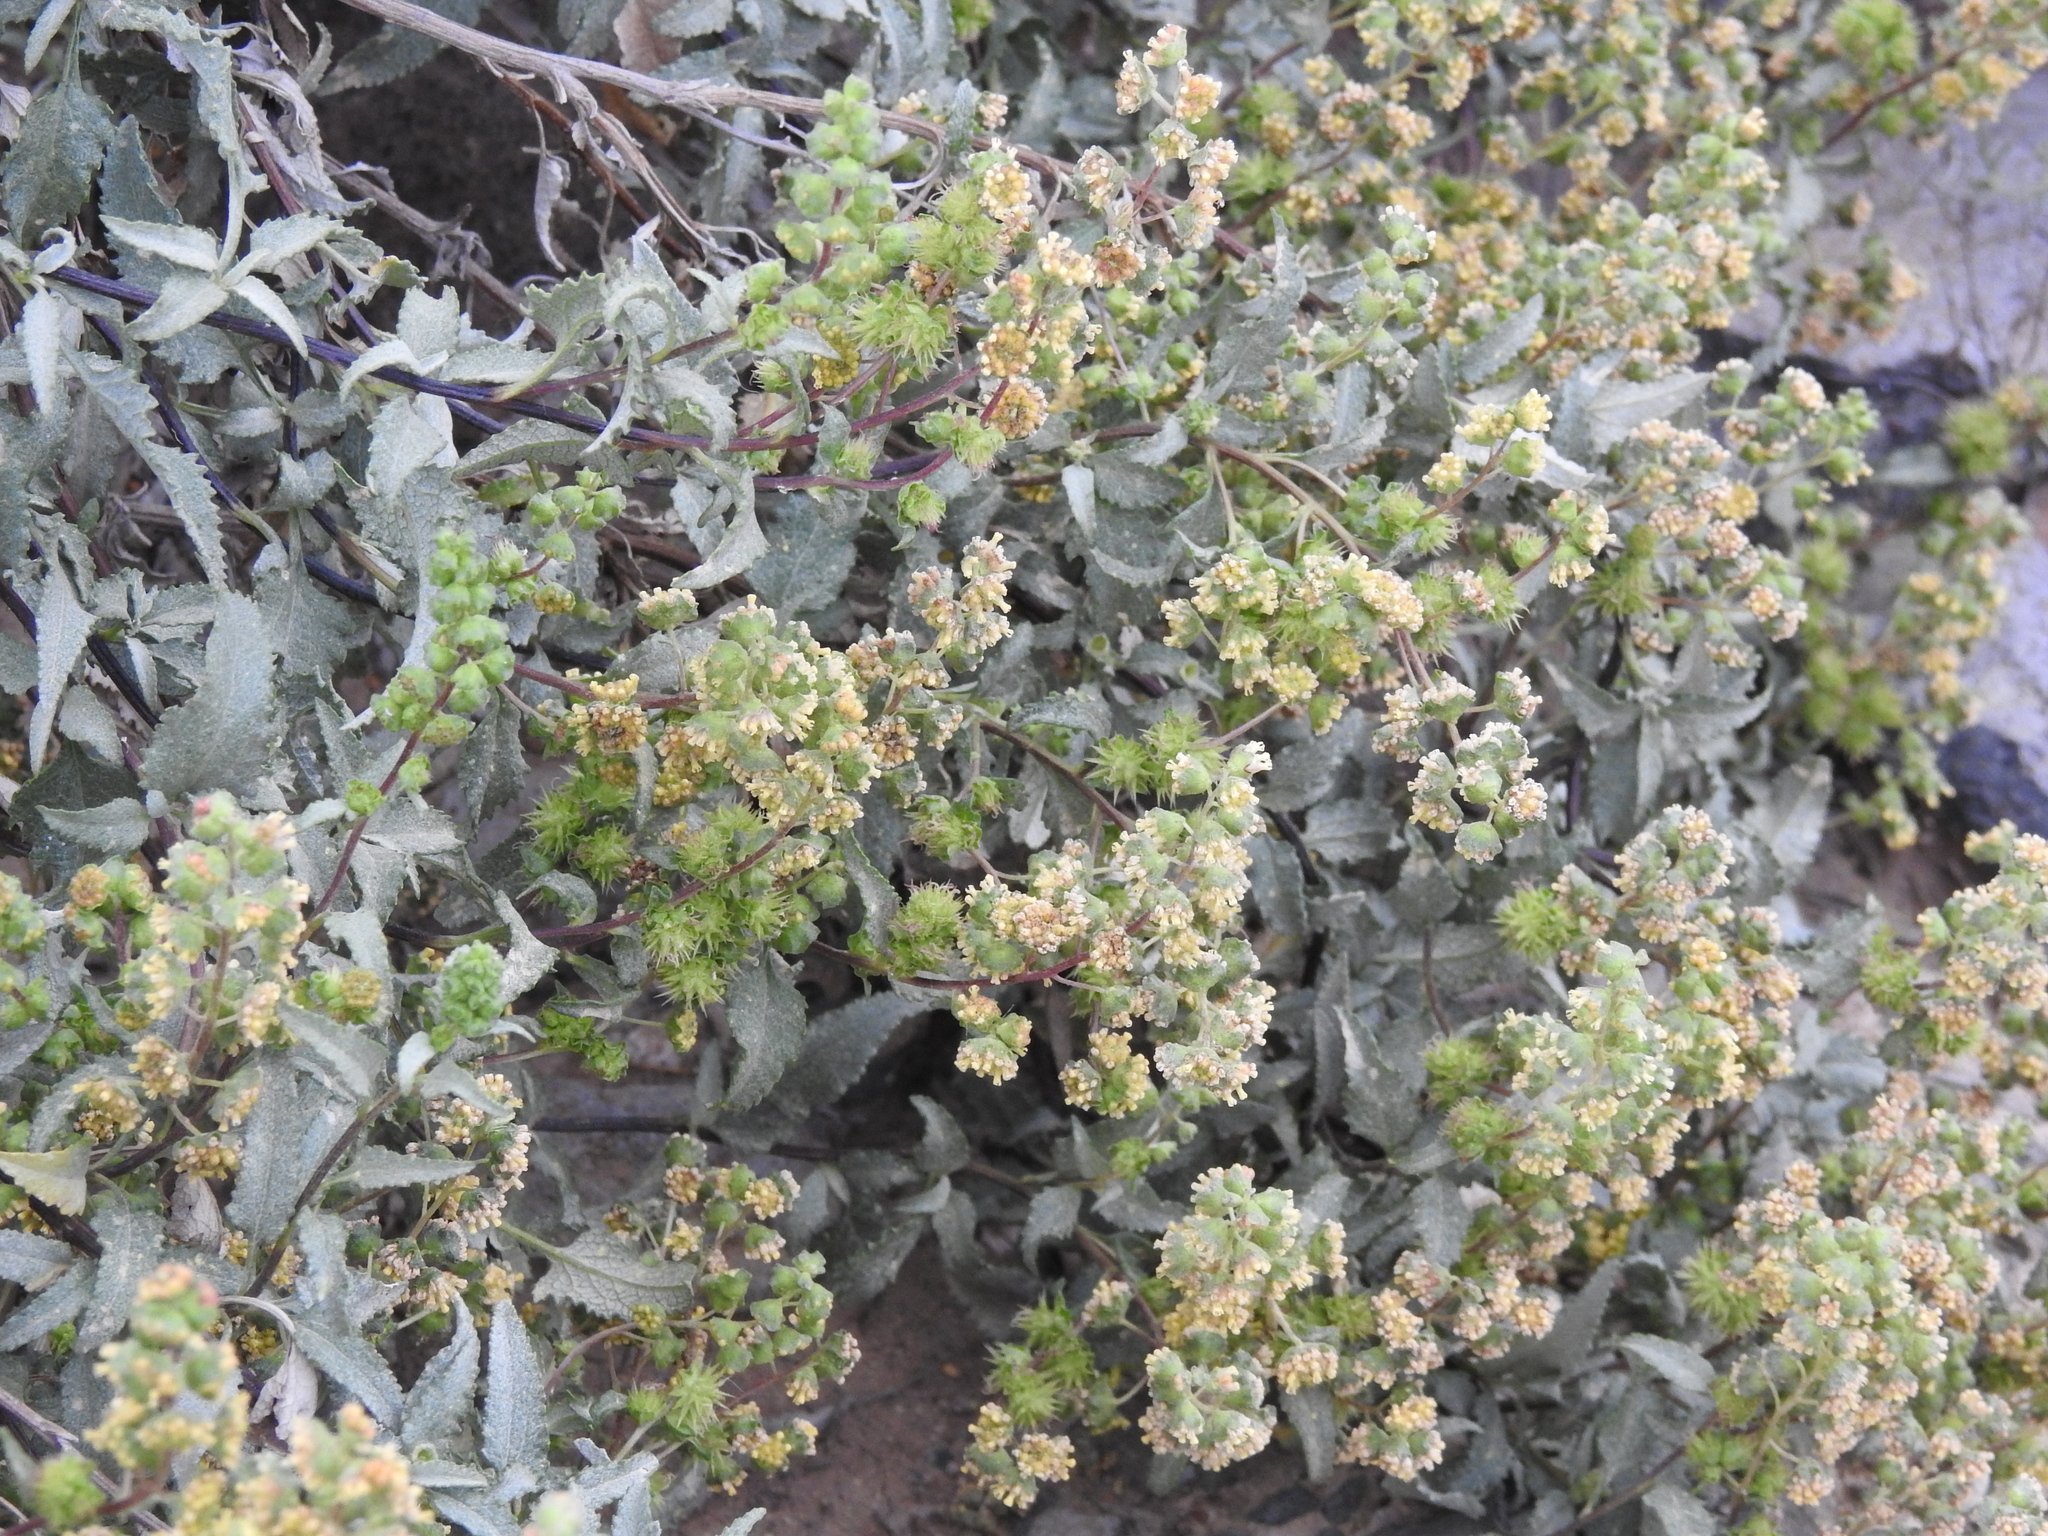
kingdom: Plantae
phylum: Tracheophyta
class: Magnoliopsida
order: Asterales
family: Asteraceae
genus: Ambrosia
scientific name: Ambrosia deltoidea
